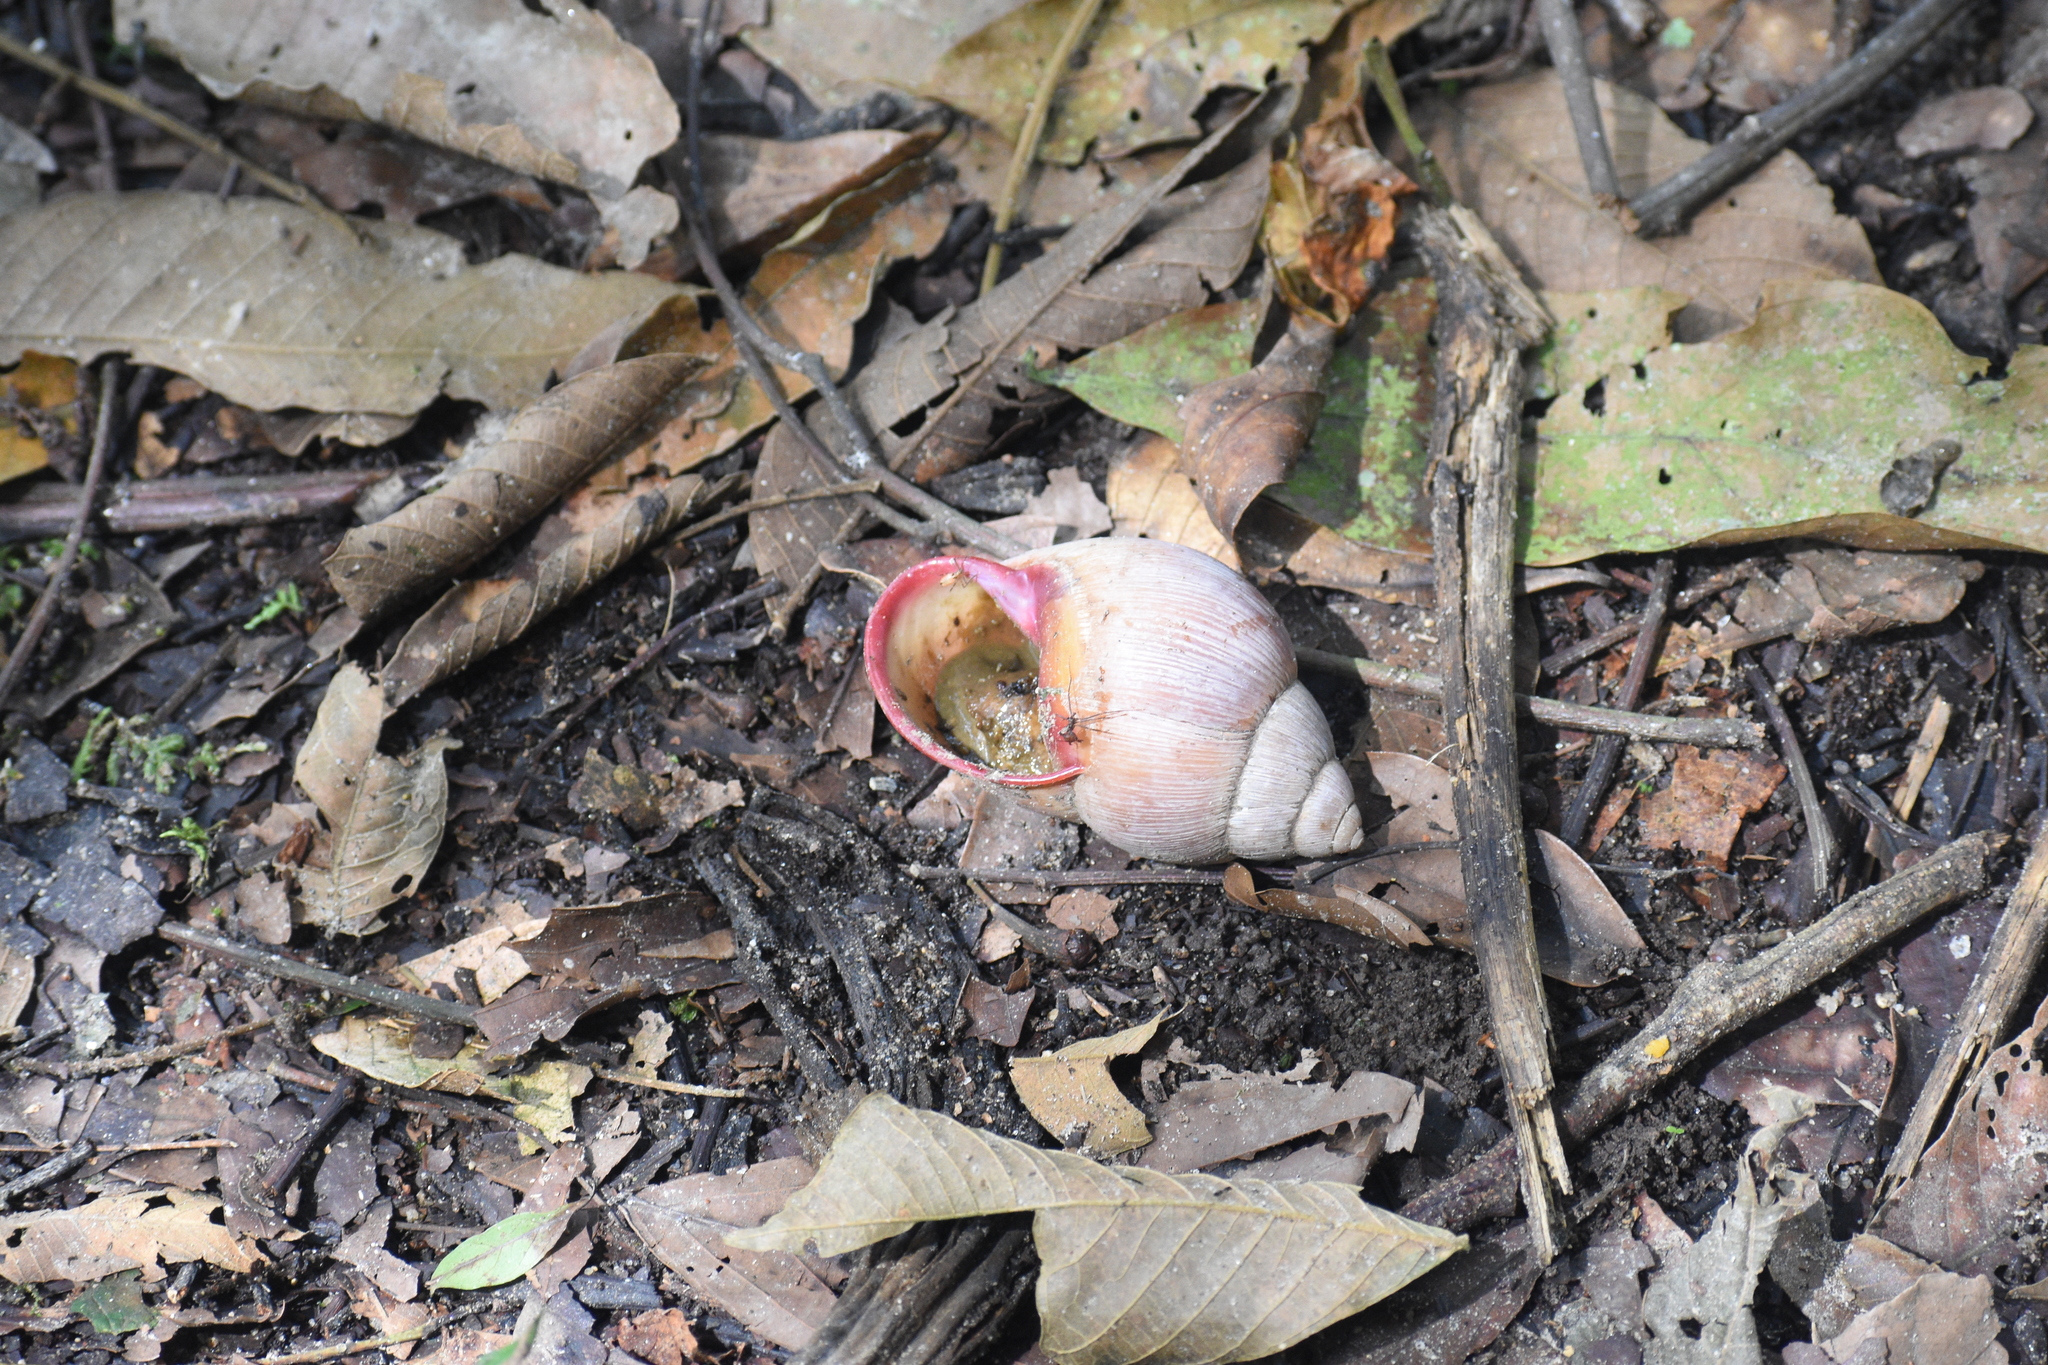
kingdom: Animalia
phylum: Mollusca
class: Gastropoda
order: Stylommatophora
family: Strophocheilidae
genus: Megalobulimus
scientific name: Megalobulimus oblongus
